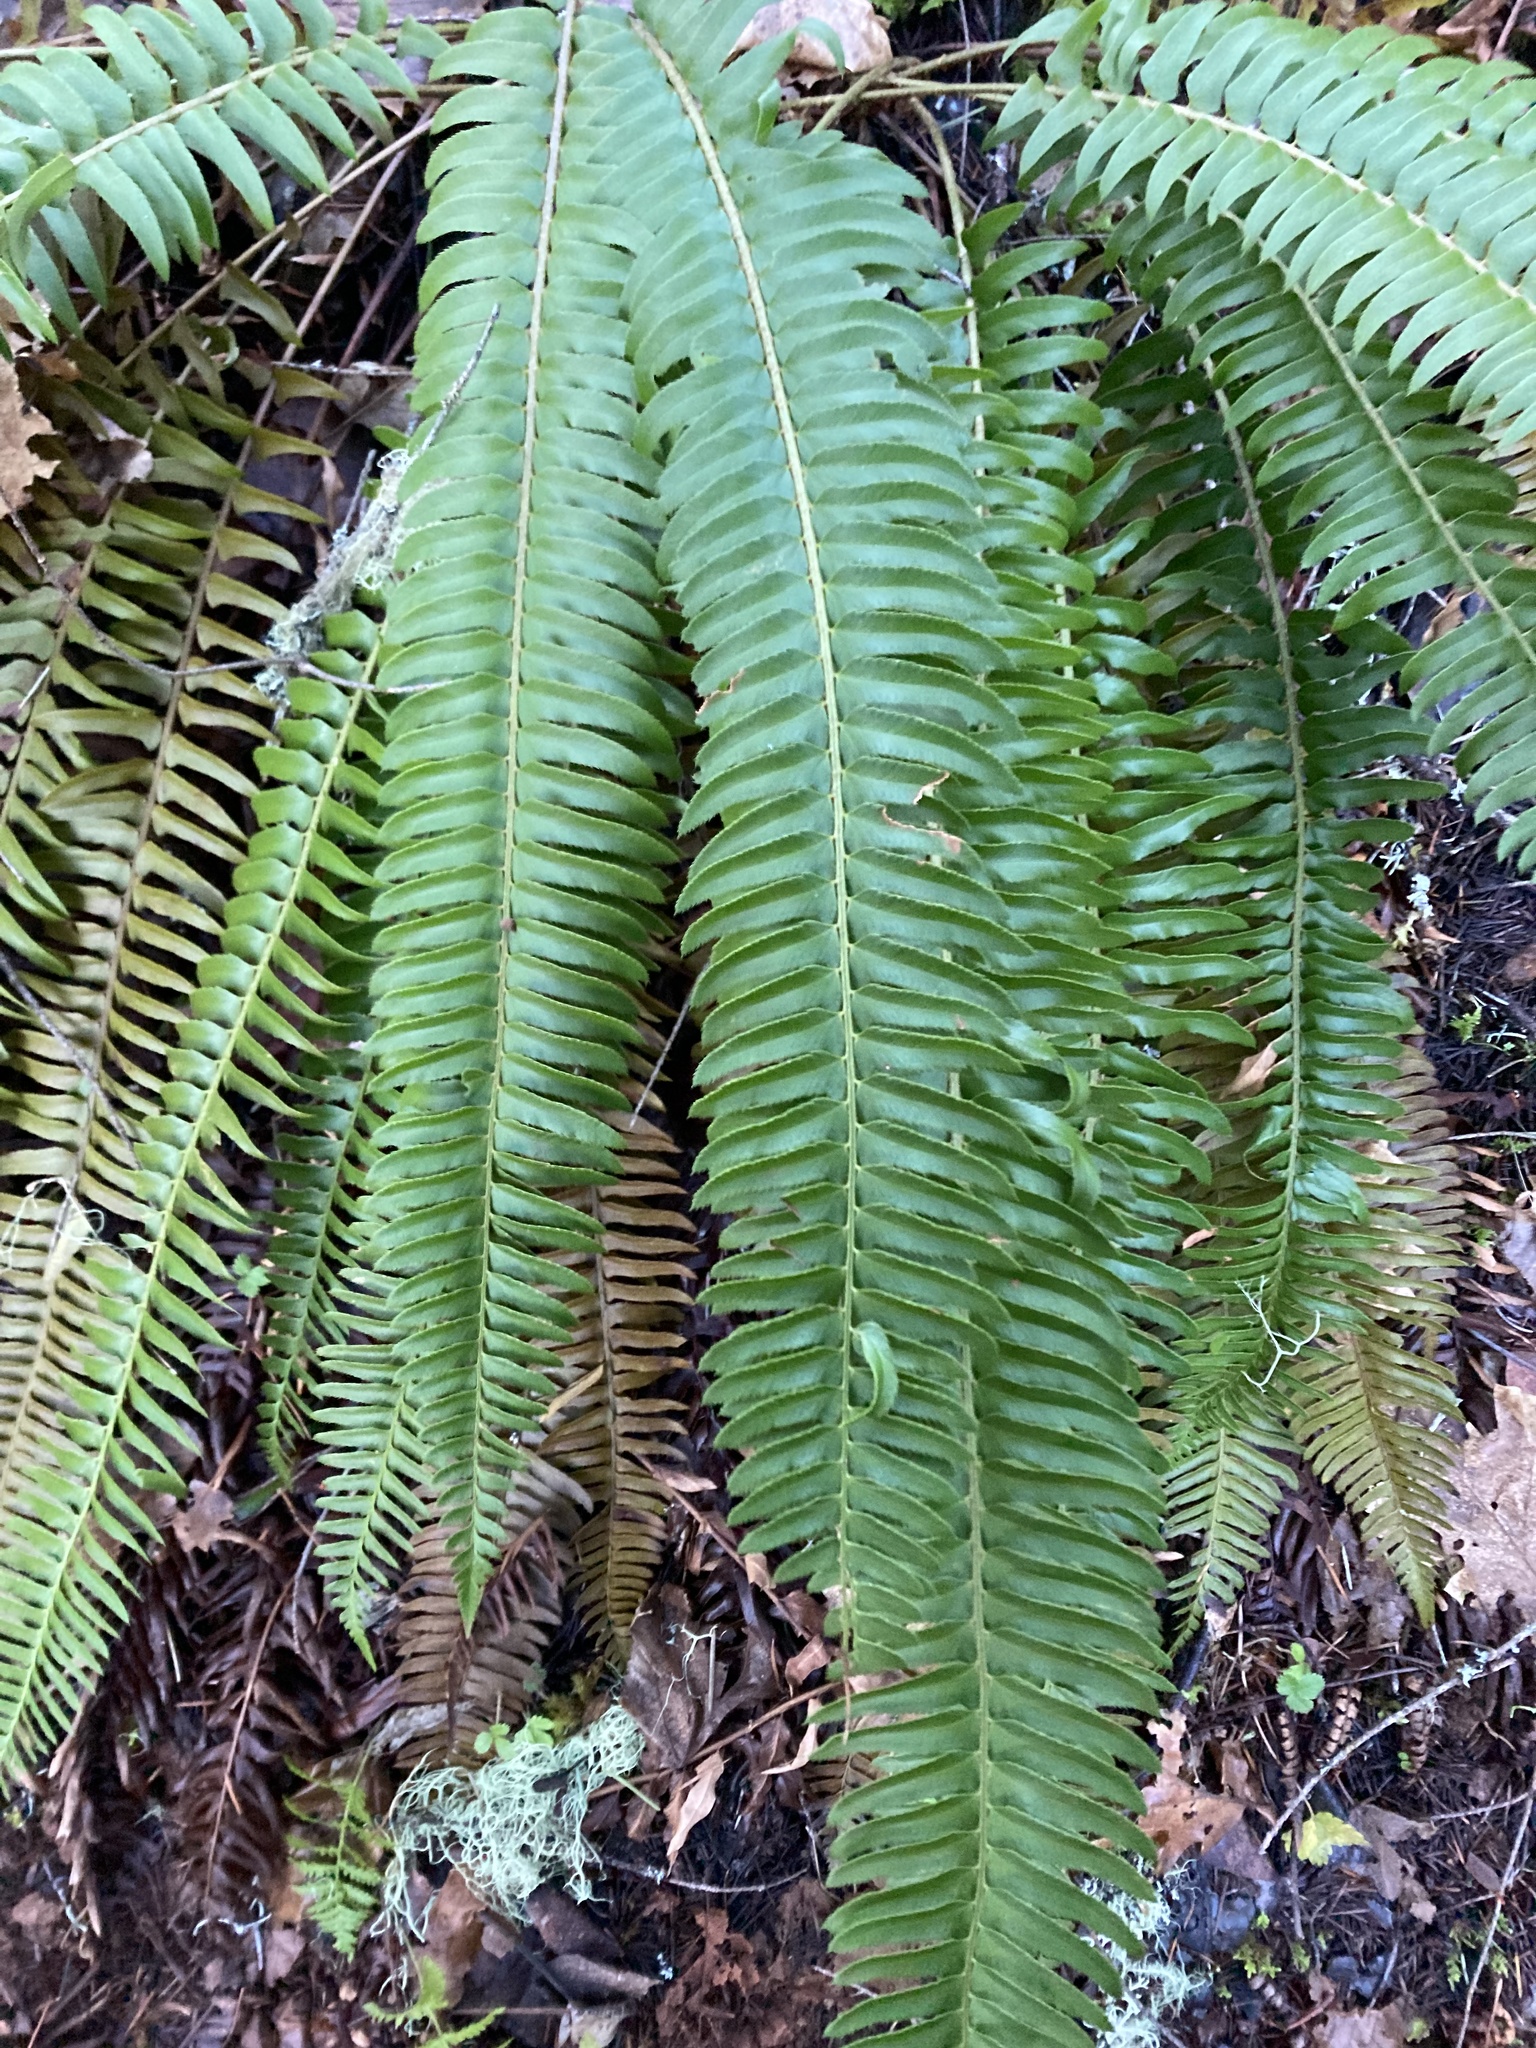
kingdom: Plantae
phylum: Tracheophyta
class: Polypodiopsida
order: Polypodiales
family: Dryopteridaceae
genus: Polystichum
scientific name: Polystichum munitum
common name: Western sword-fern
